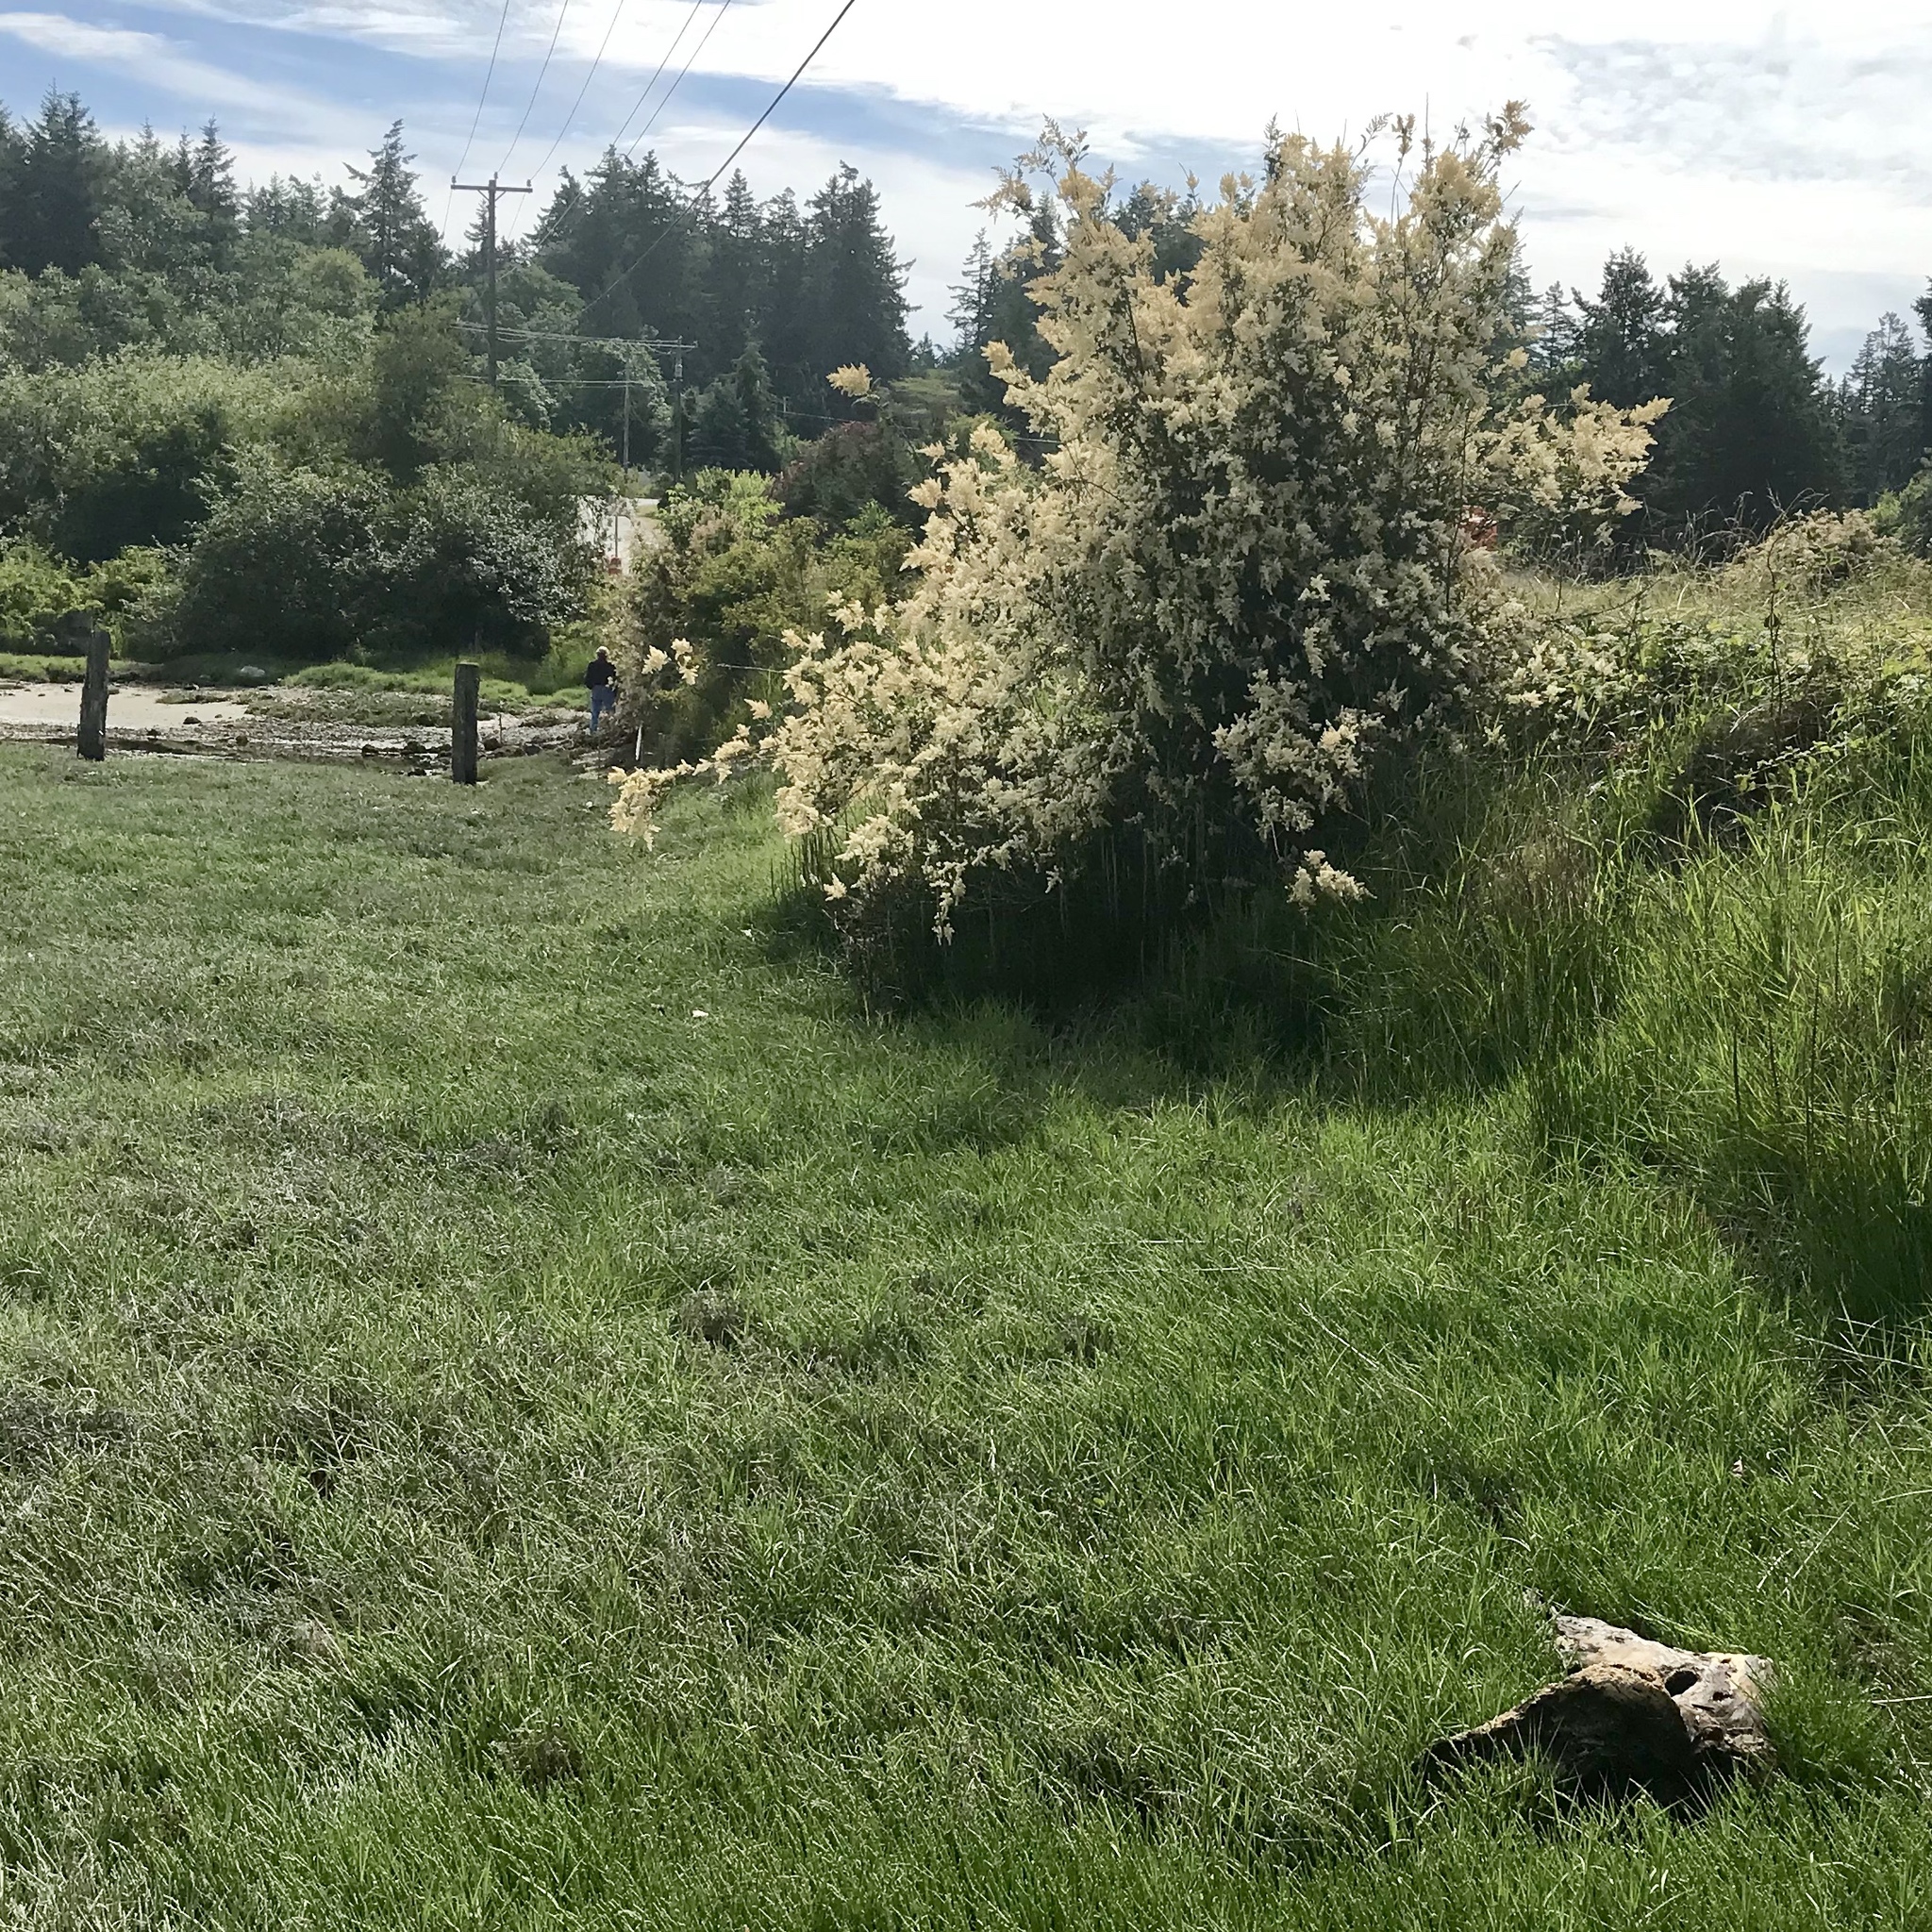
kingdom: Plantae
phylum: Tracheophyta
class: Magnoliopsida
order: Rosales
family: Rosaceae
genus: Holodiscus
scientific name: Holodiscus discolor
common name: Oceanspray
